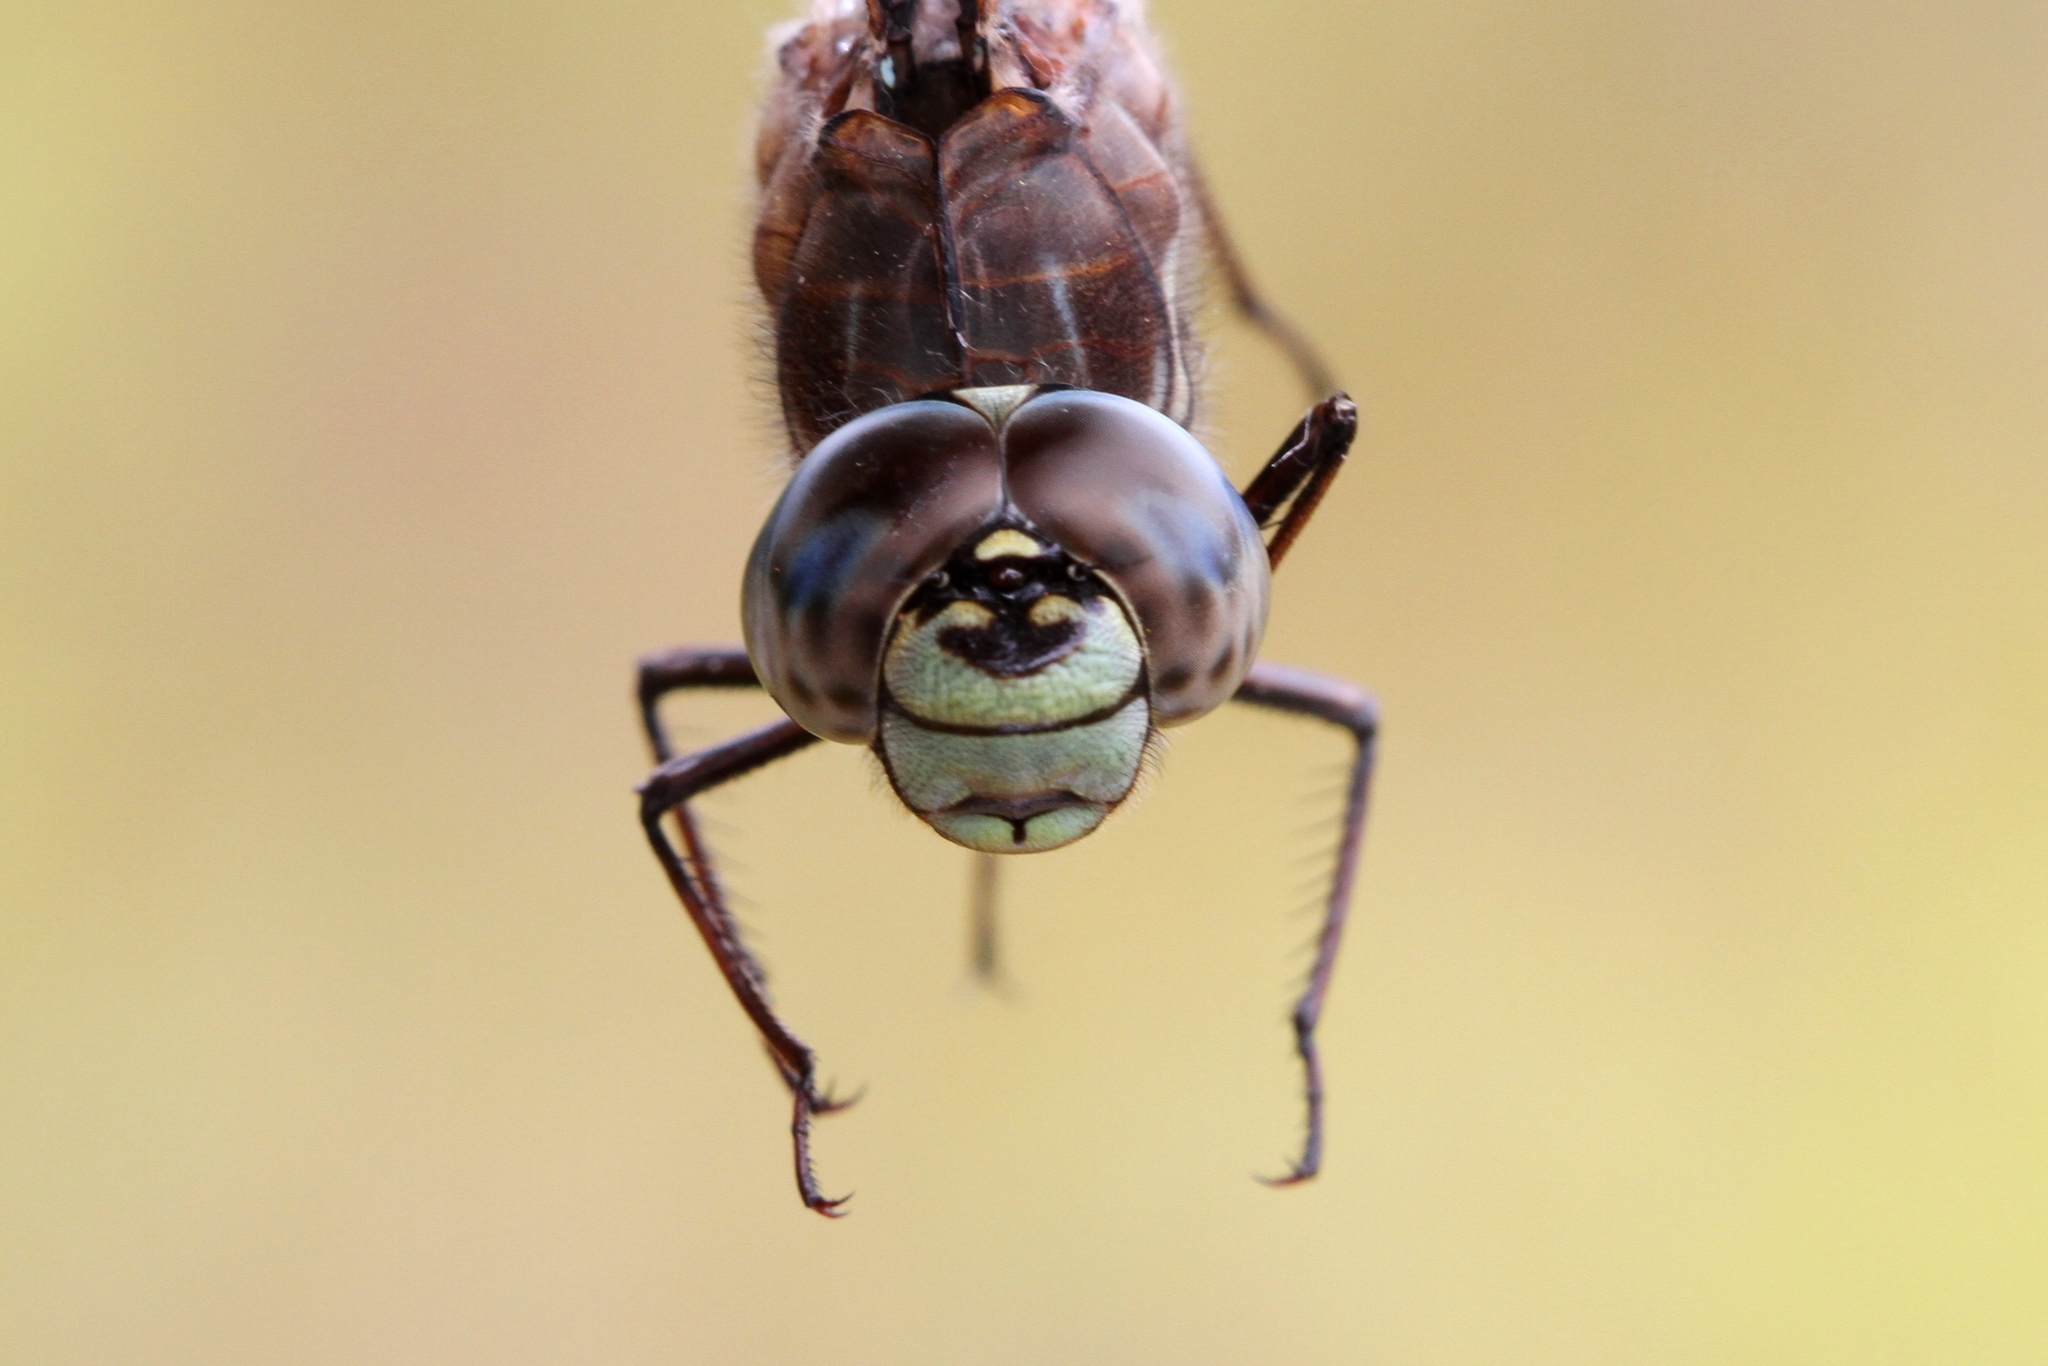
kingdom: Animalia
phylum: Arthropoda
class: Insecta
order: Odonata
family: Aeshnidae
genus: Aeshna
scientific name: Aeshna sitchensis
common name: Zigzag darner
